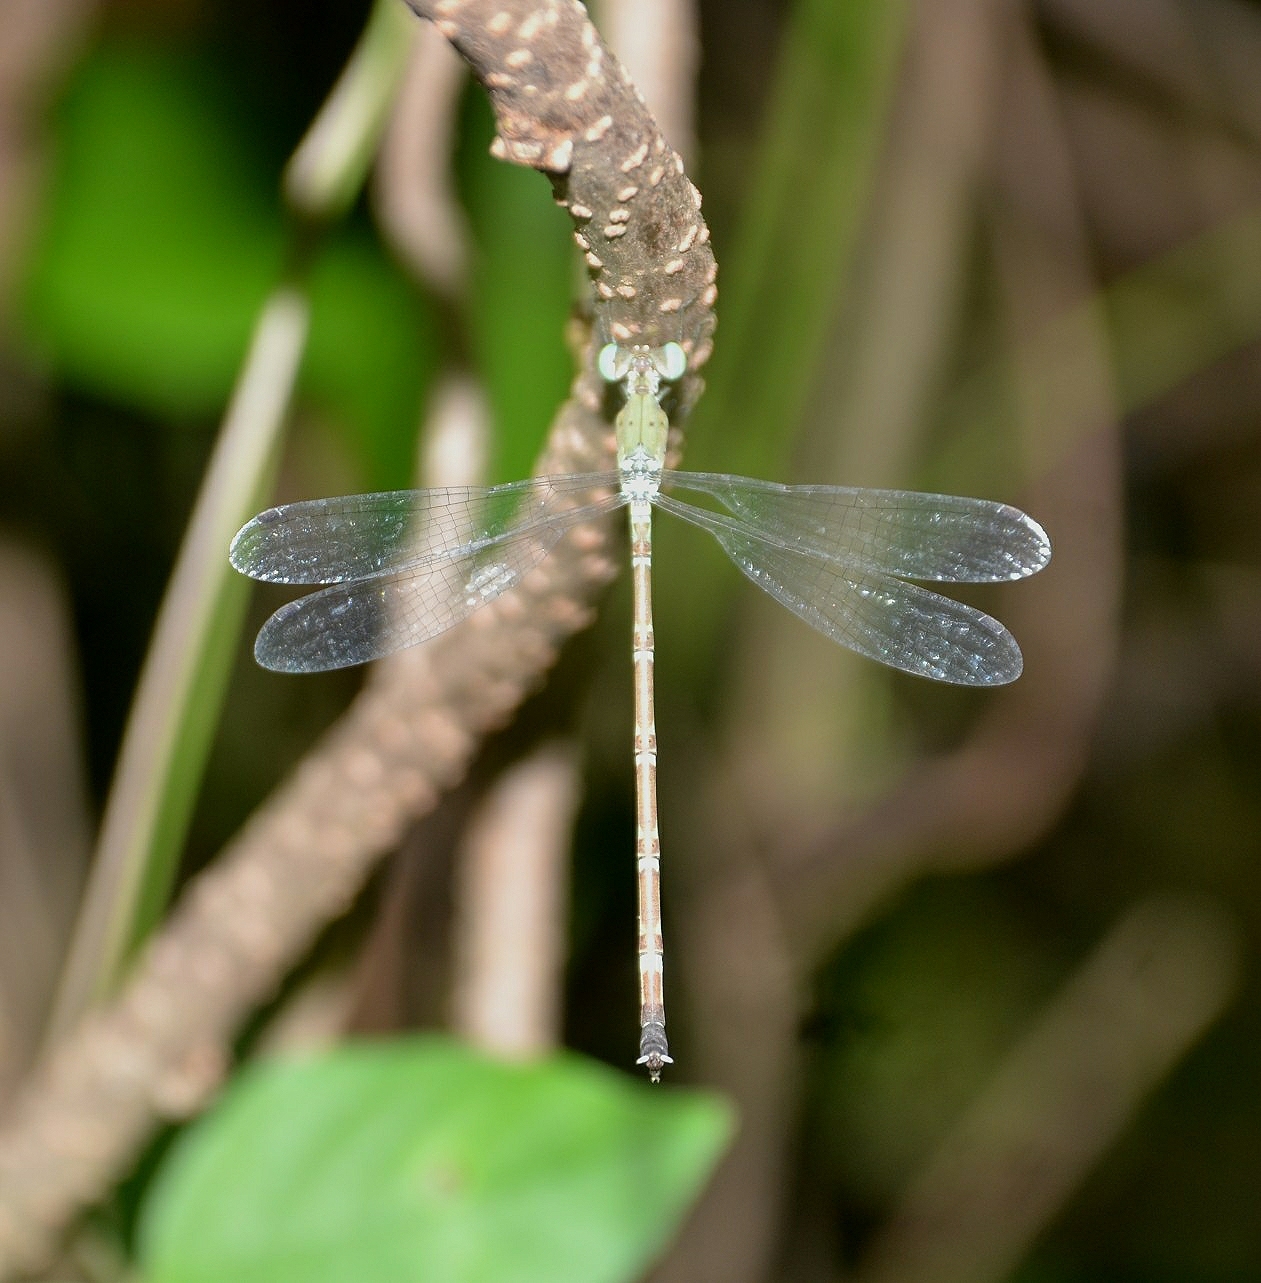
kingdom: Animalia
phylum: Arthropoda
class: Insecta
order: Odonata
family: Lestidae
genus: Platylestes
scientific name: Platylestes platystylus
